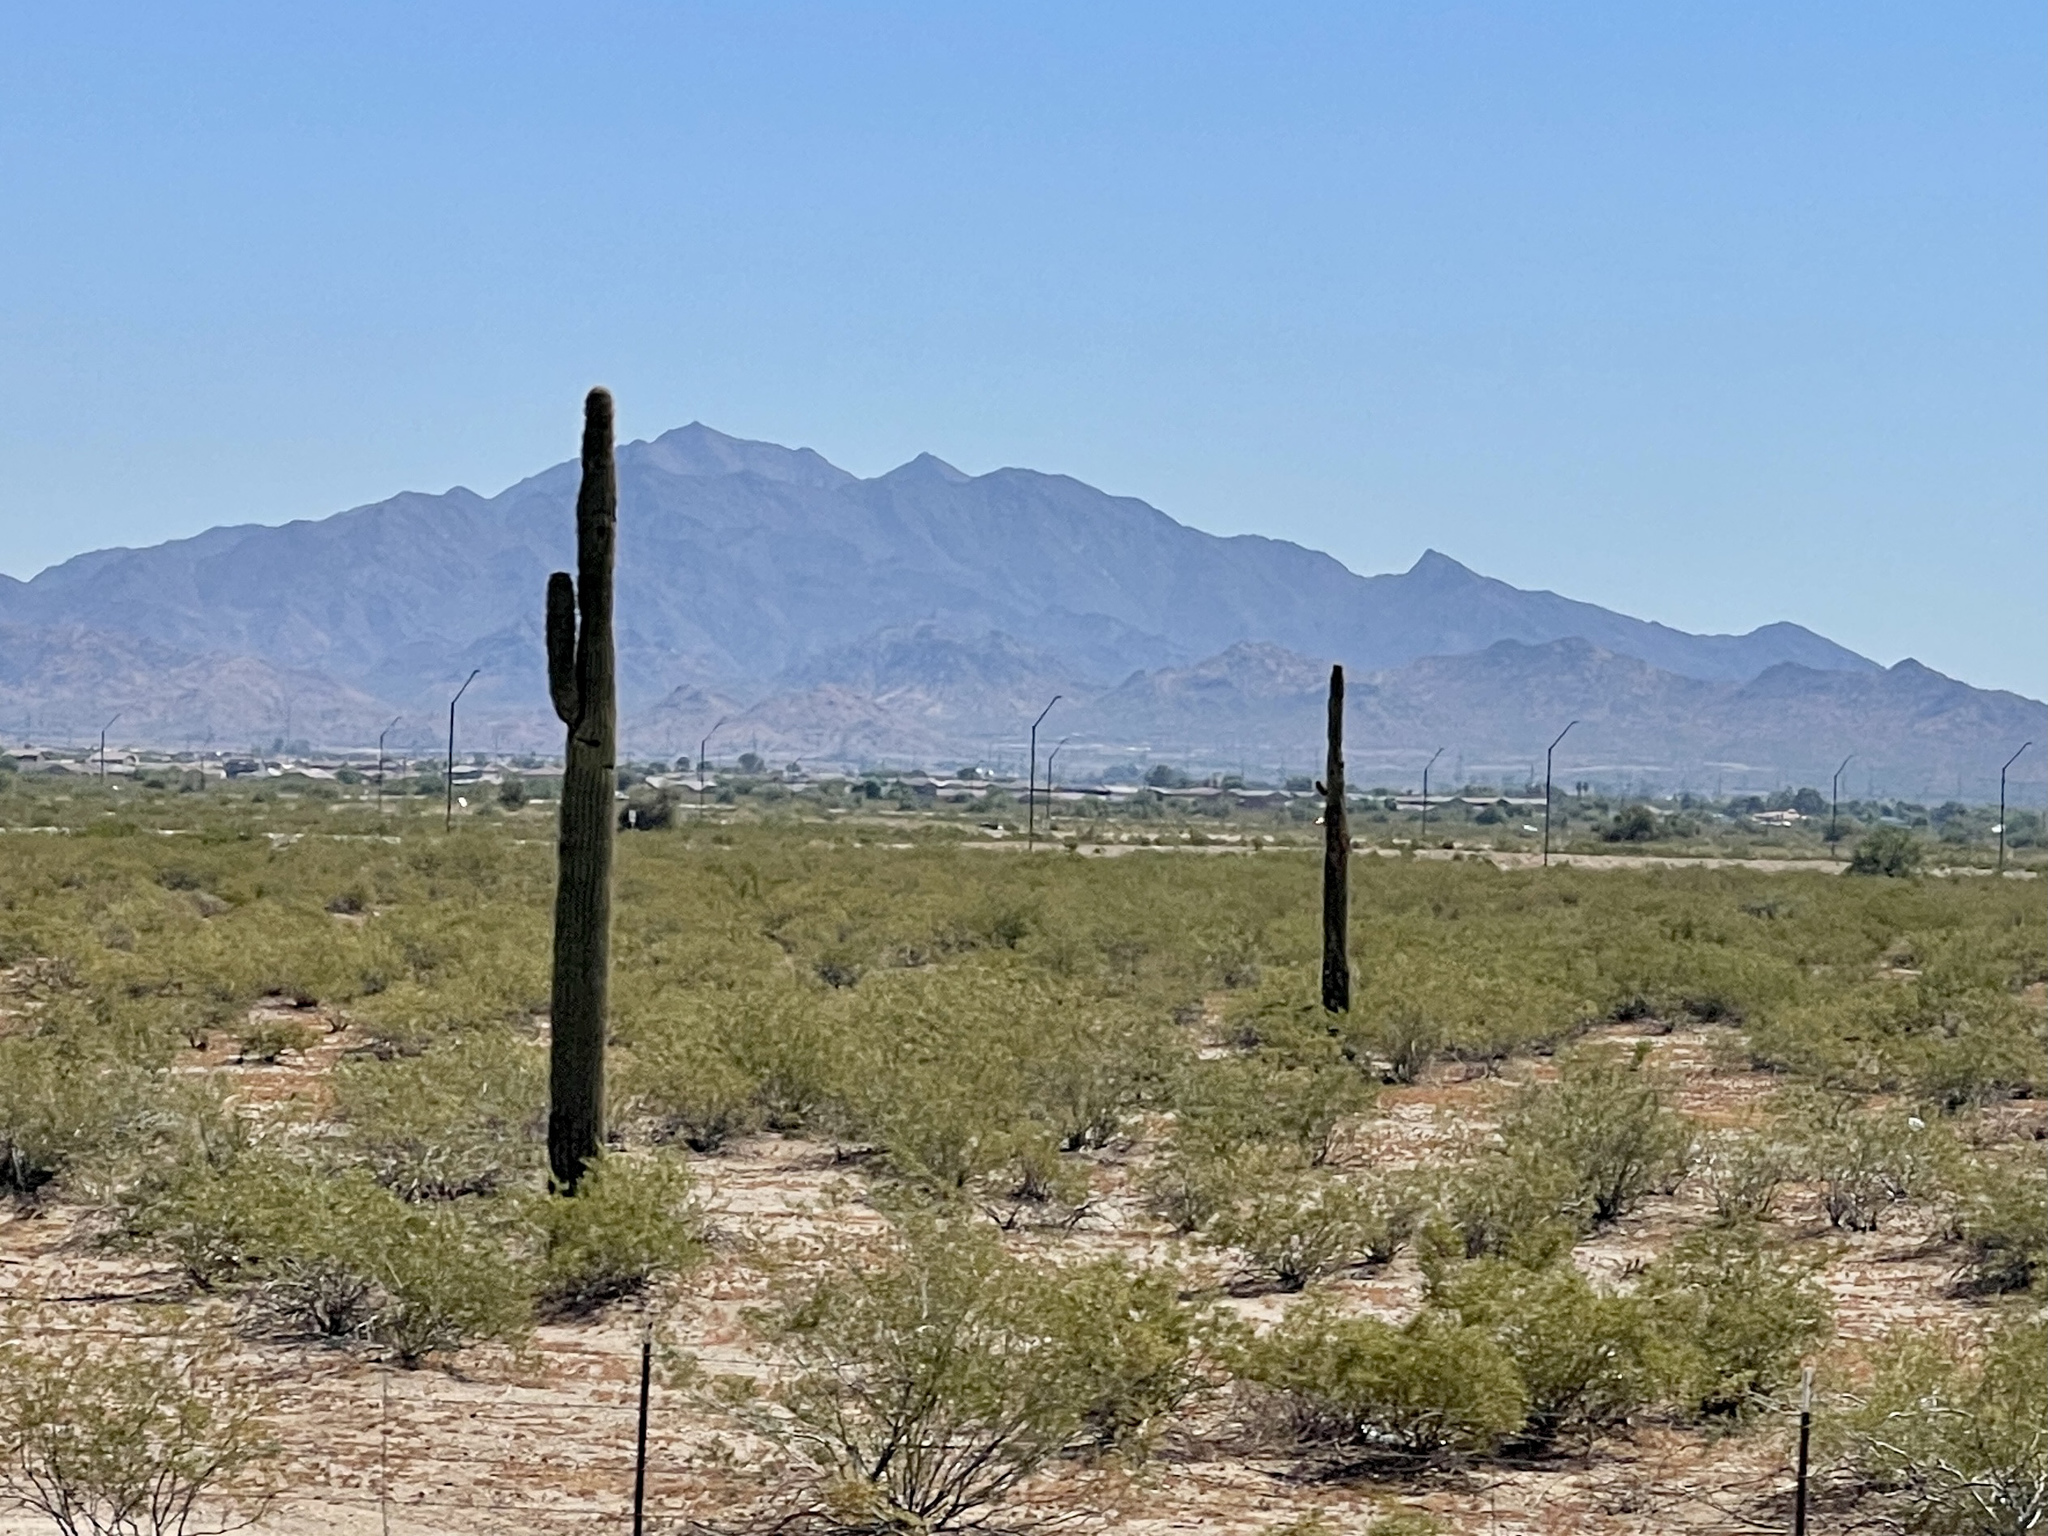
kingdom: Plantae
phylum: Tracheophyta
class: Magnoliopsida
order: Caryophyllales
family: Cactaceae
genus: Carnegiea
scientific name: Carnegiea gigantea
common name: Saguaro
